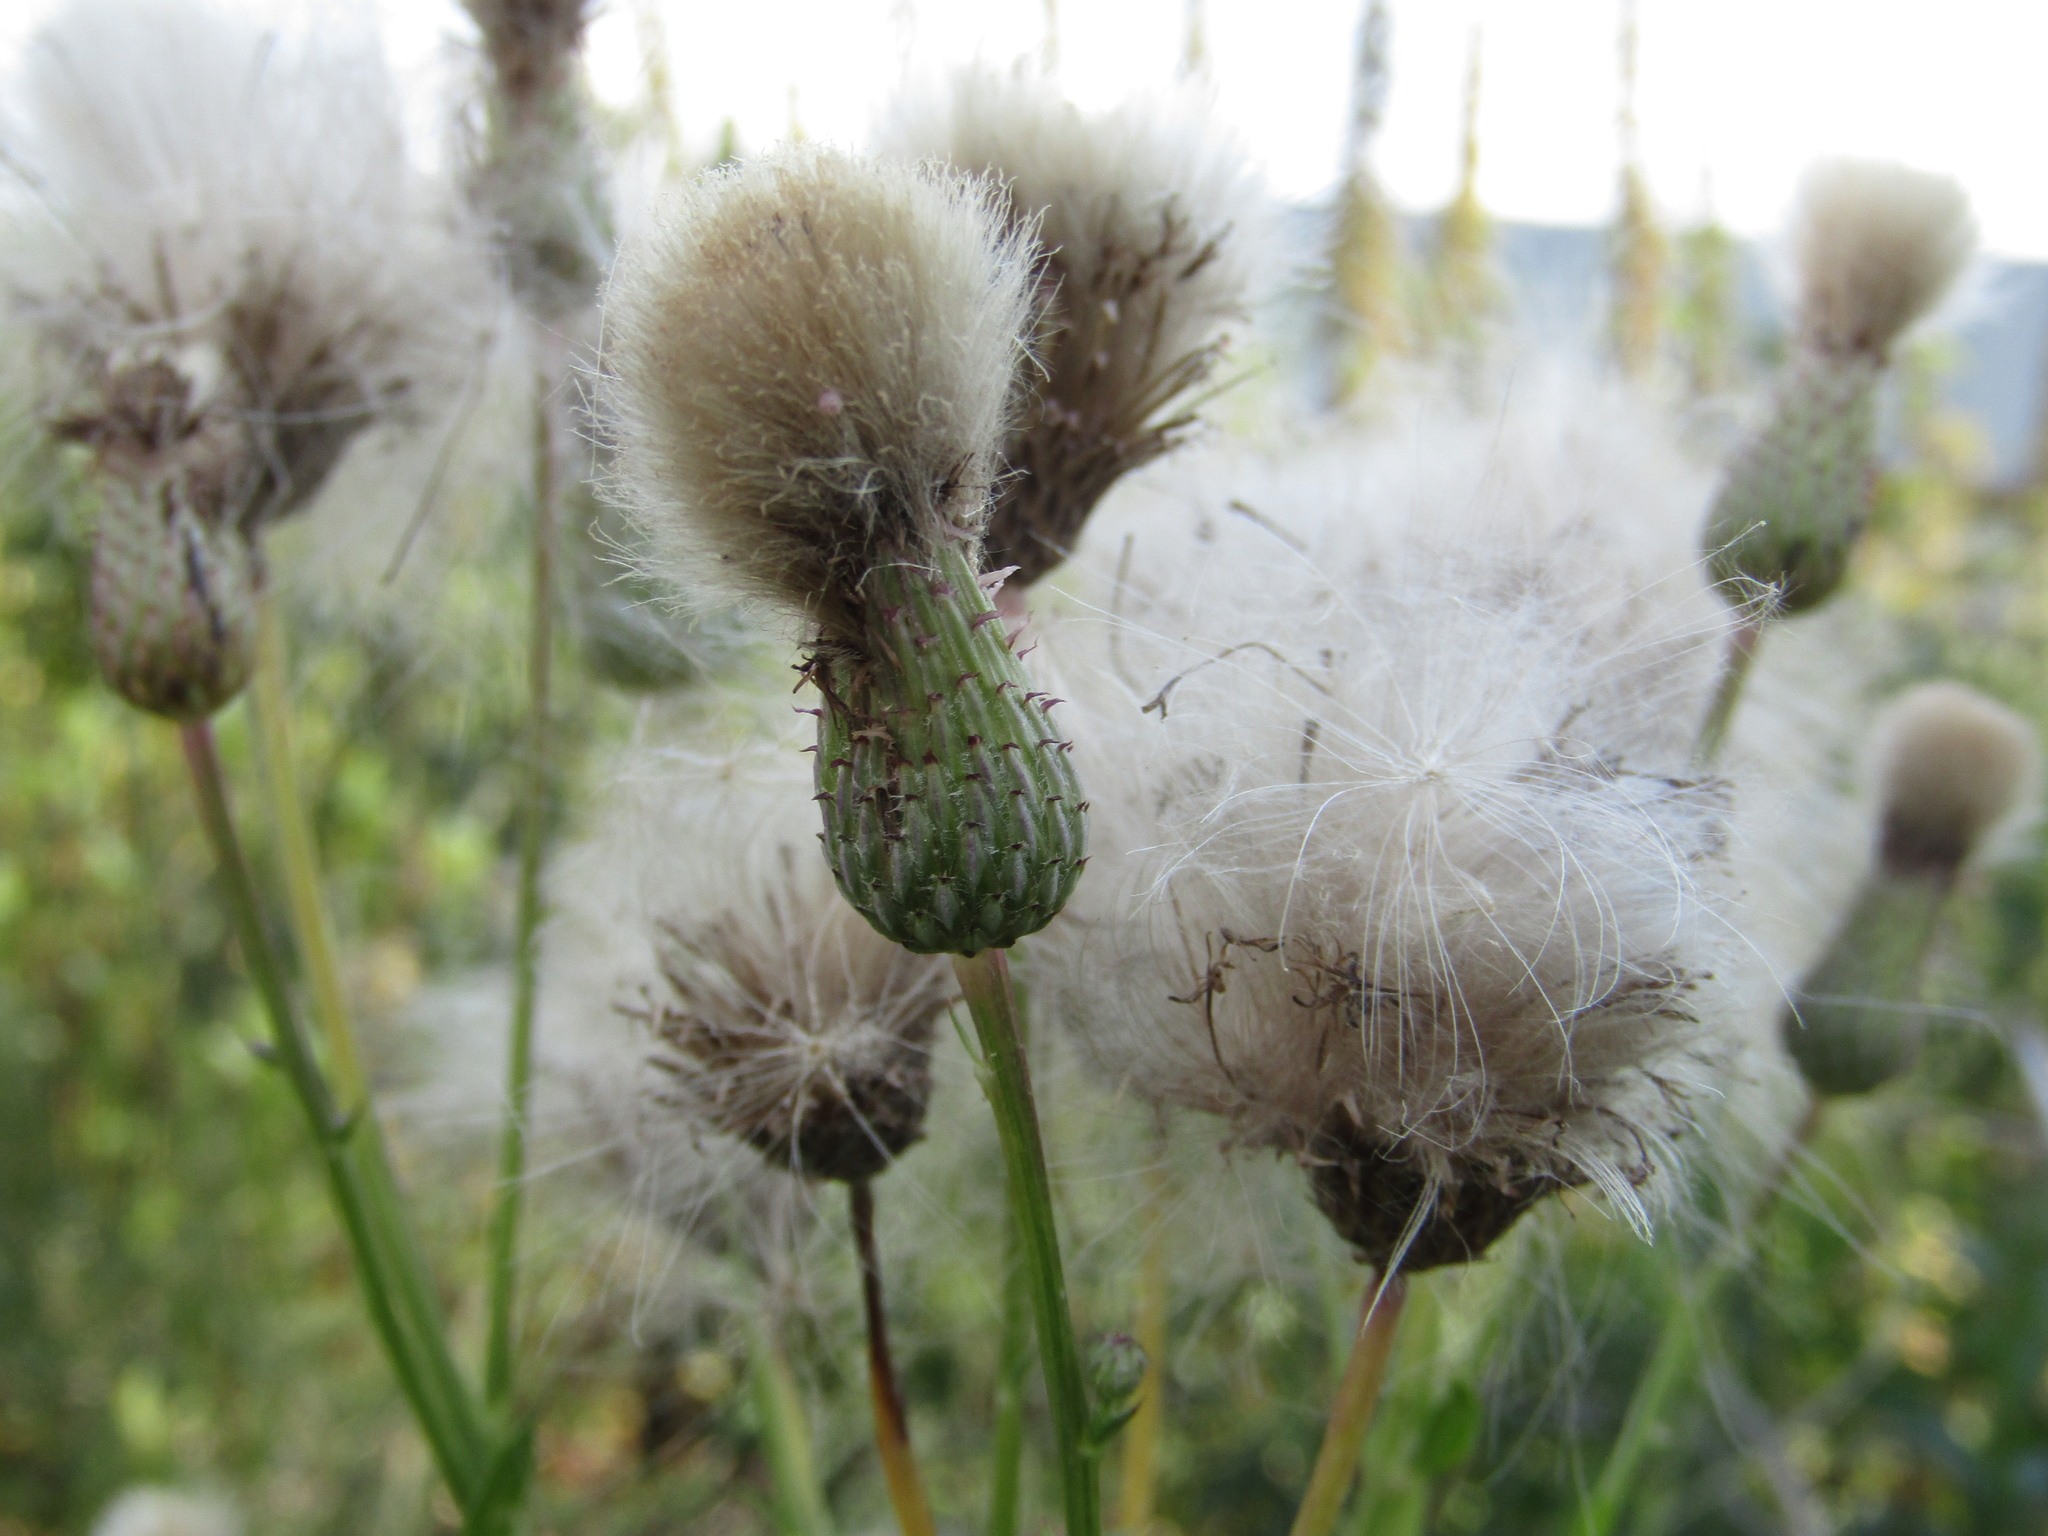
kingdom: Plantae
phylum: Tracheophyta
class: Magnoliopsida
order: Asterales
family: Asteraceae
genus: Cirsium
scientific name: Cirsium arvense
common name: Creeping thistle
